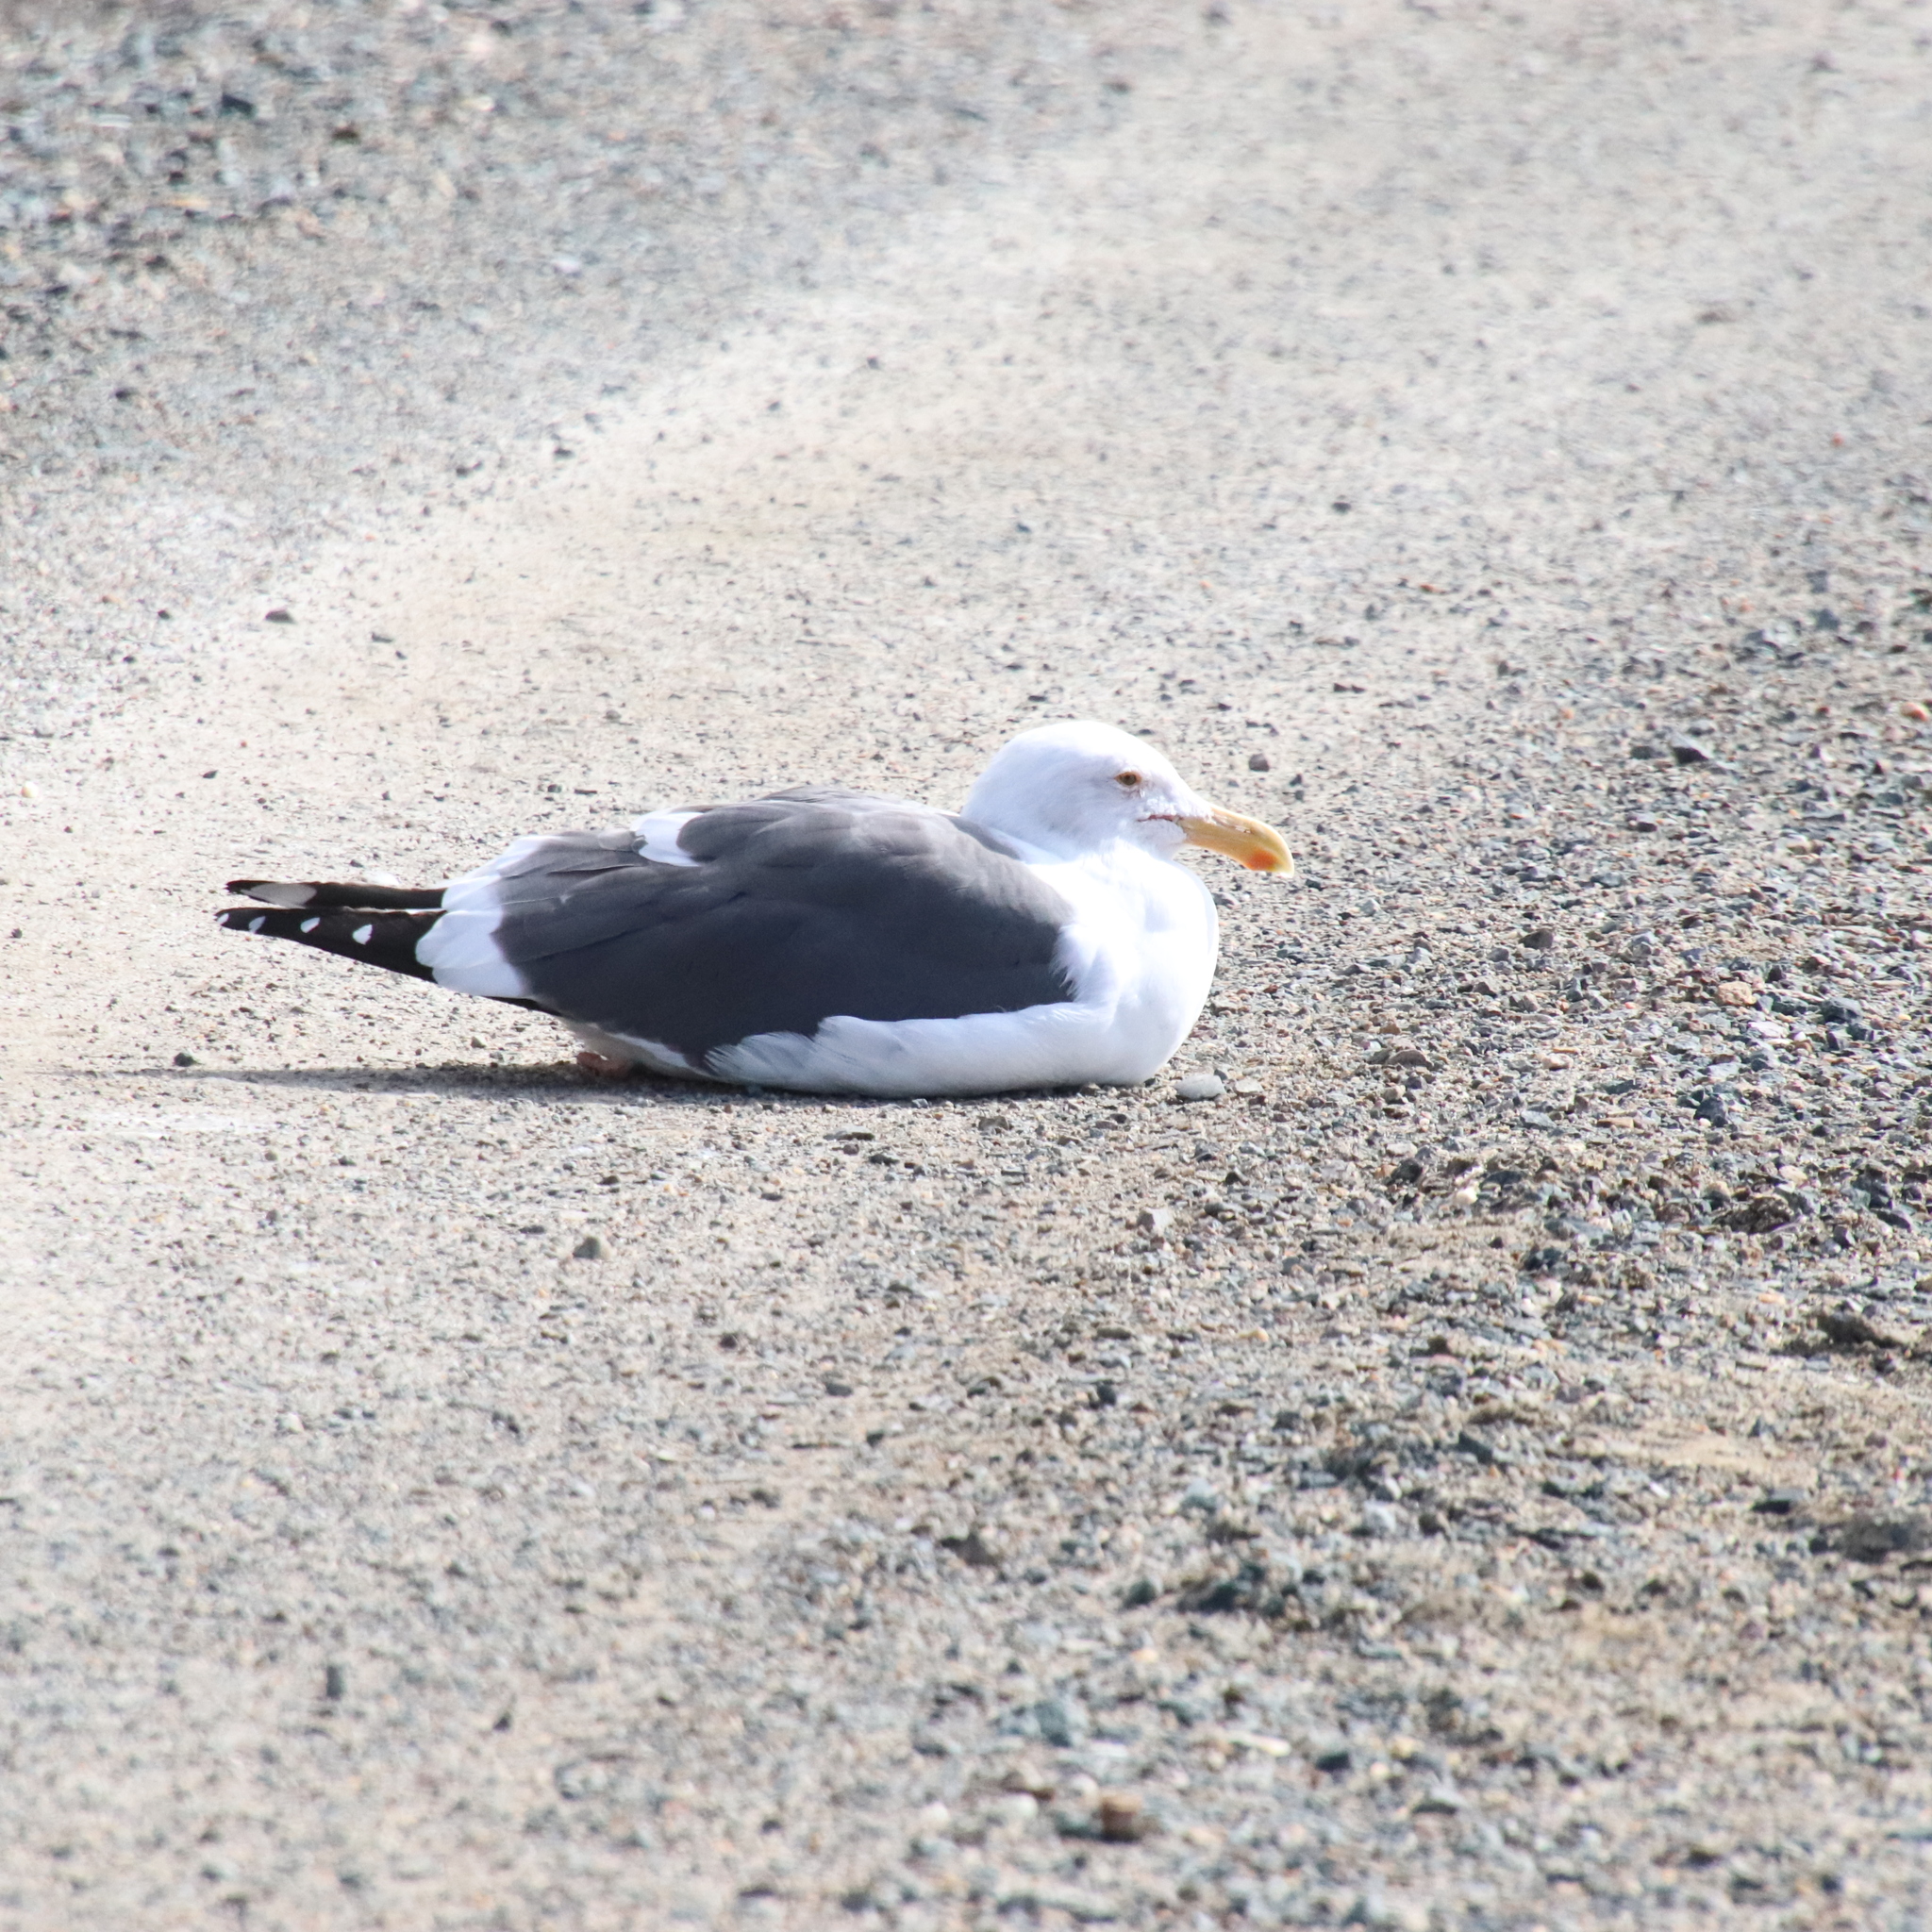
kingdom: Animalia
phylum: Chordata
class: Aves
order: Charadriiformes
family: Laridae
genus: Larus
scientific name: Larus occidentalis
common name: Western gull
